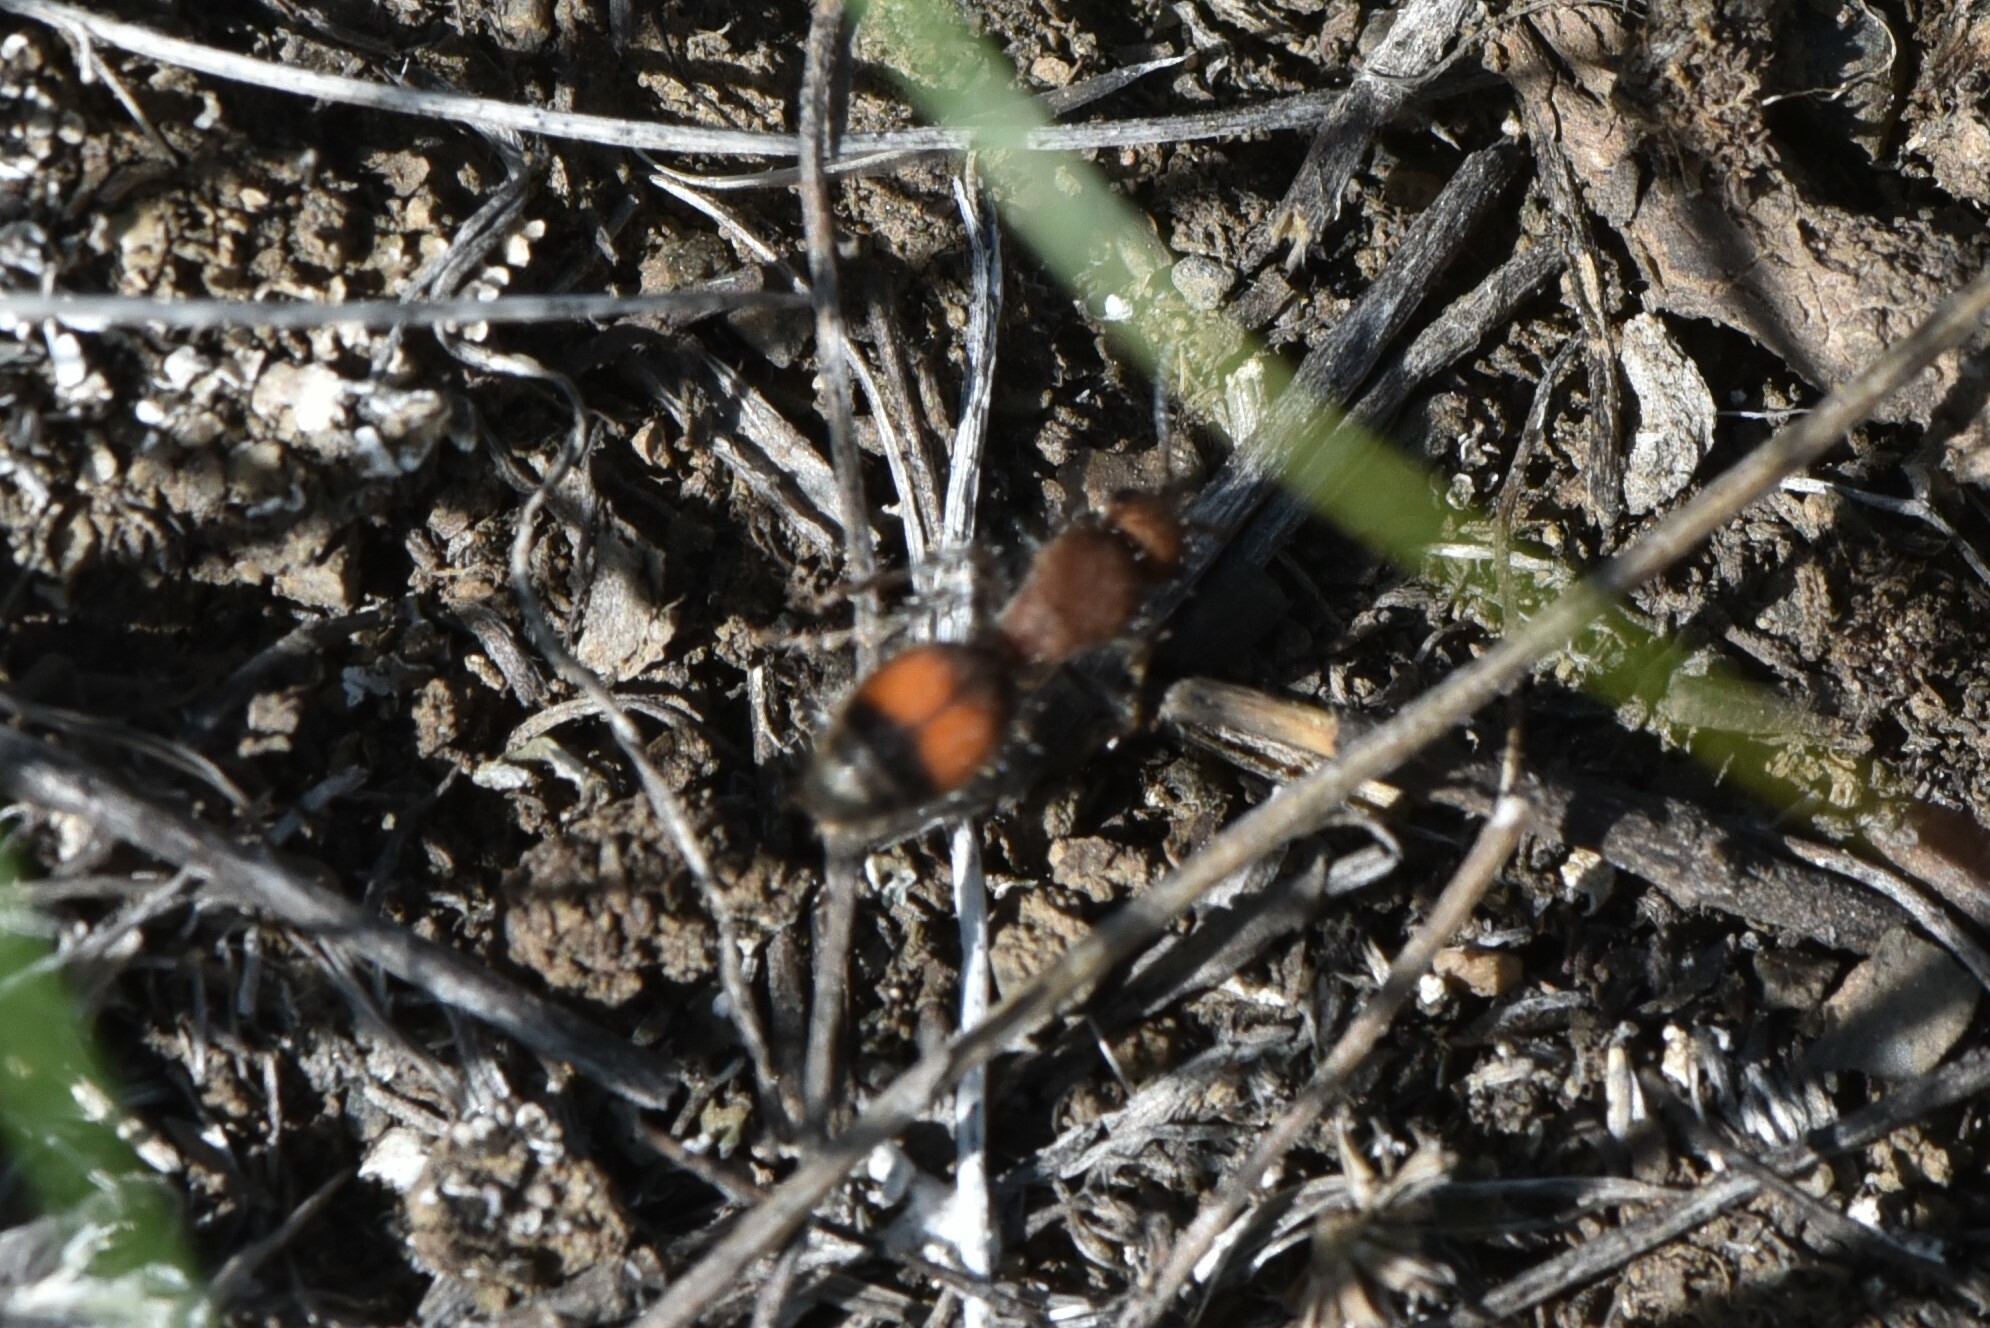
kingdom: Animalia
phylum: Arthropoda
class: Insecta
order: Hymenoptera
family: Mutillidae
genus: Dasymutilla
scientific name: Dasymutilla
